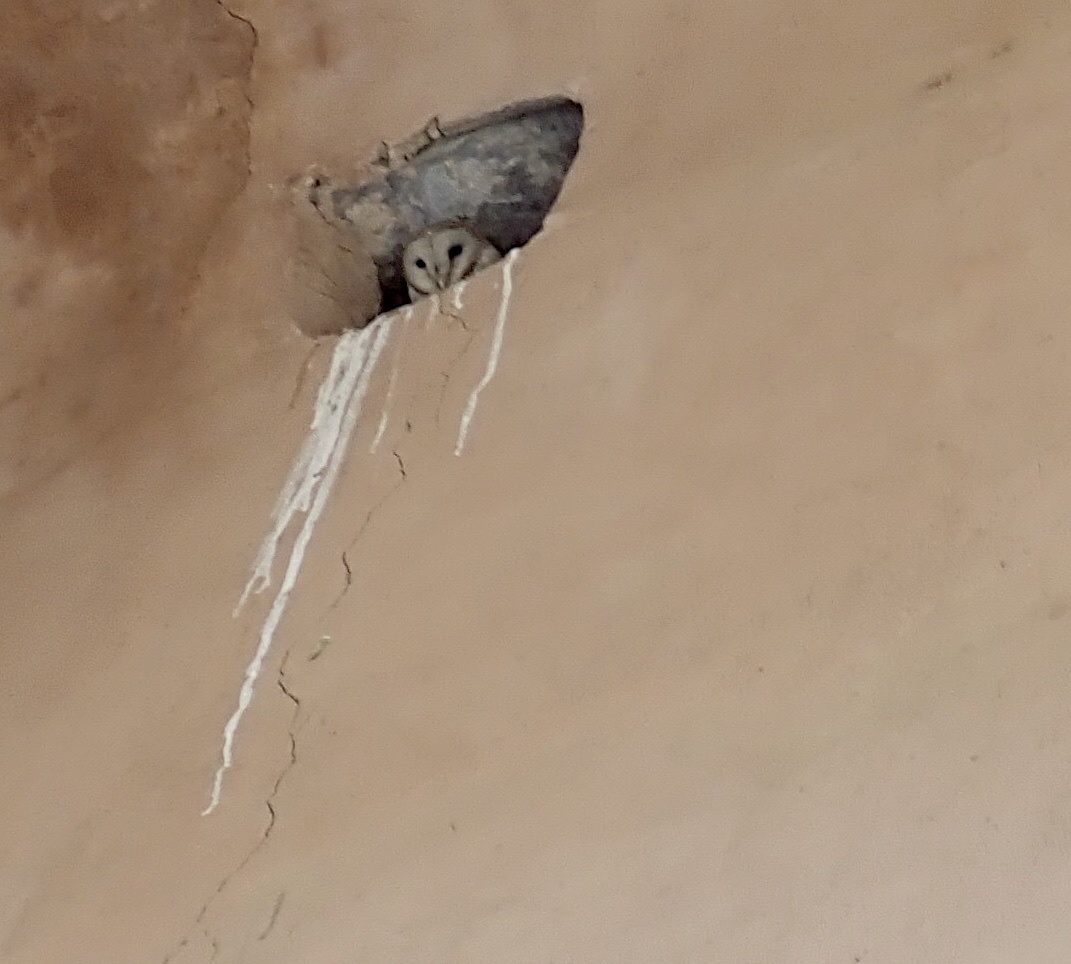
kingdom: Animalia
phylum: Chordata
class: Aves
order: Strigiformes
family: Tytonidae
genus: Tyto
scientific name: Tyto alba
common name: Barn owl
